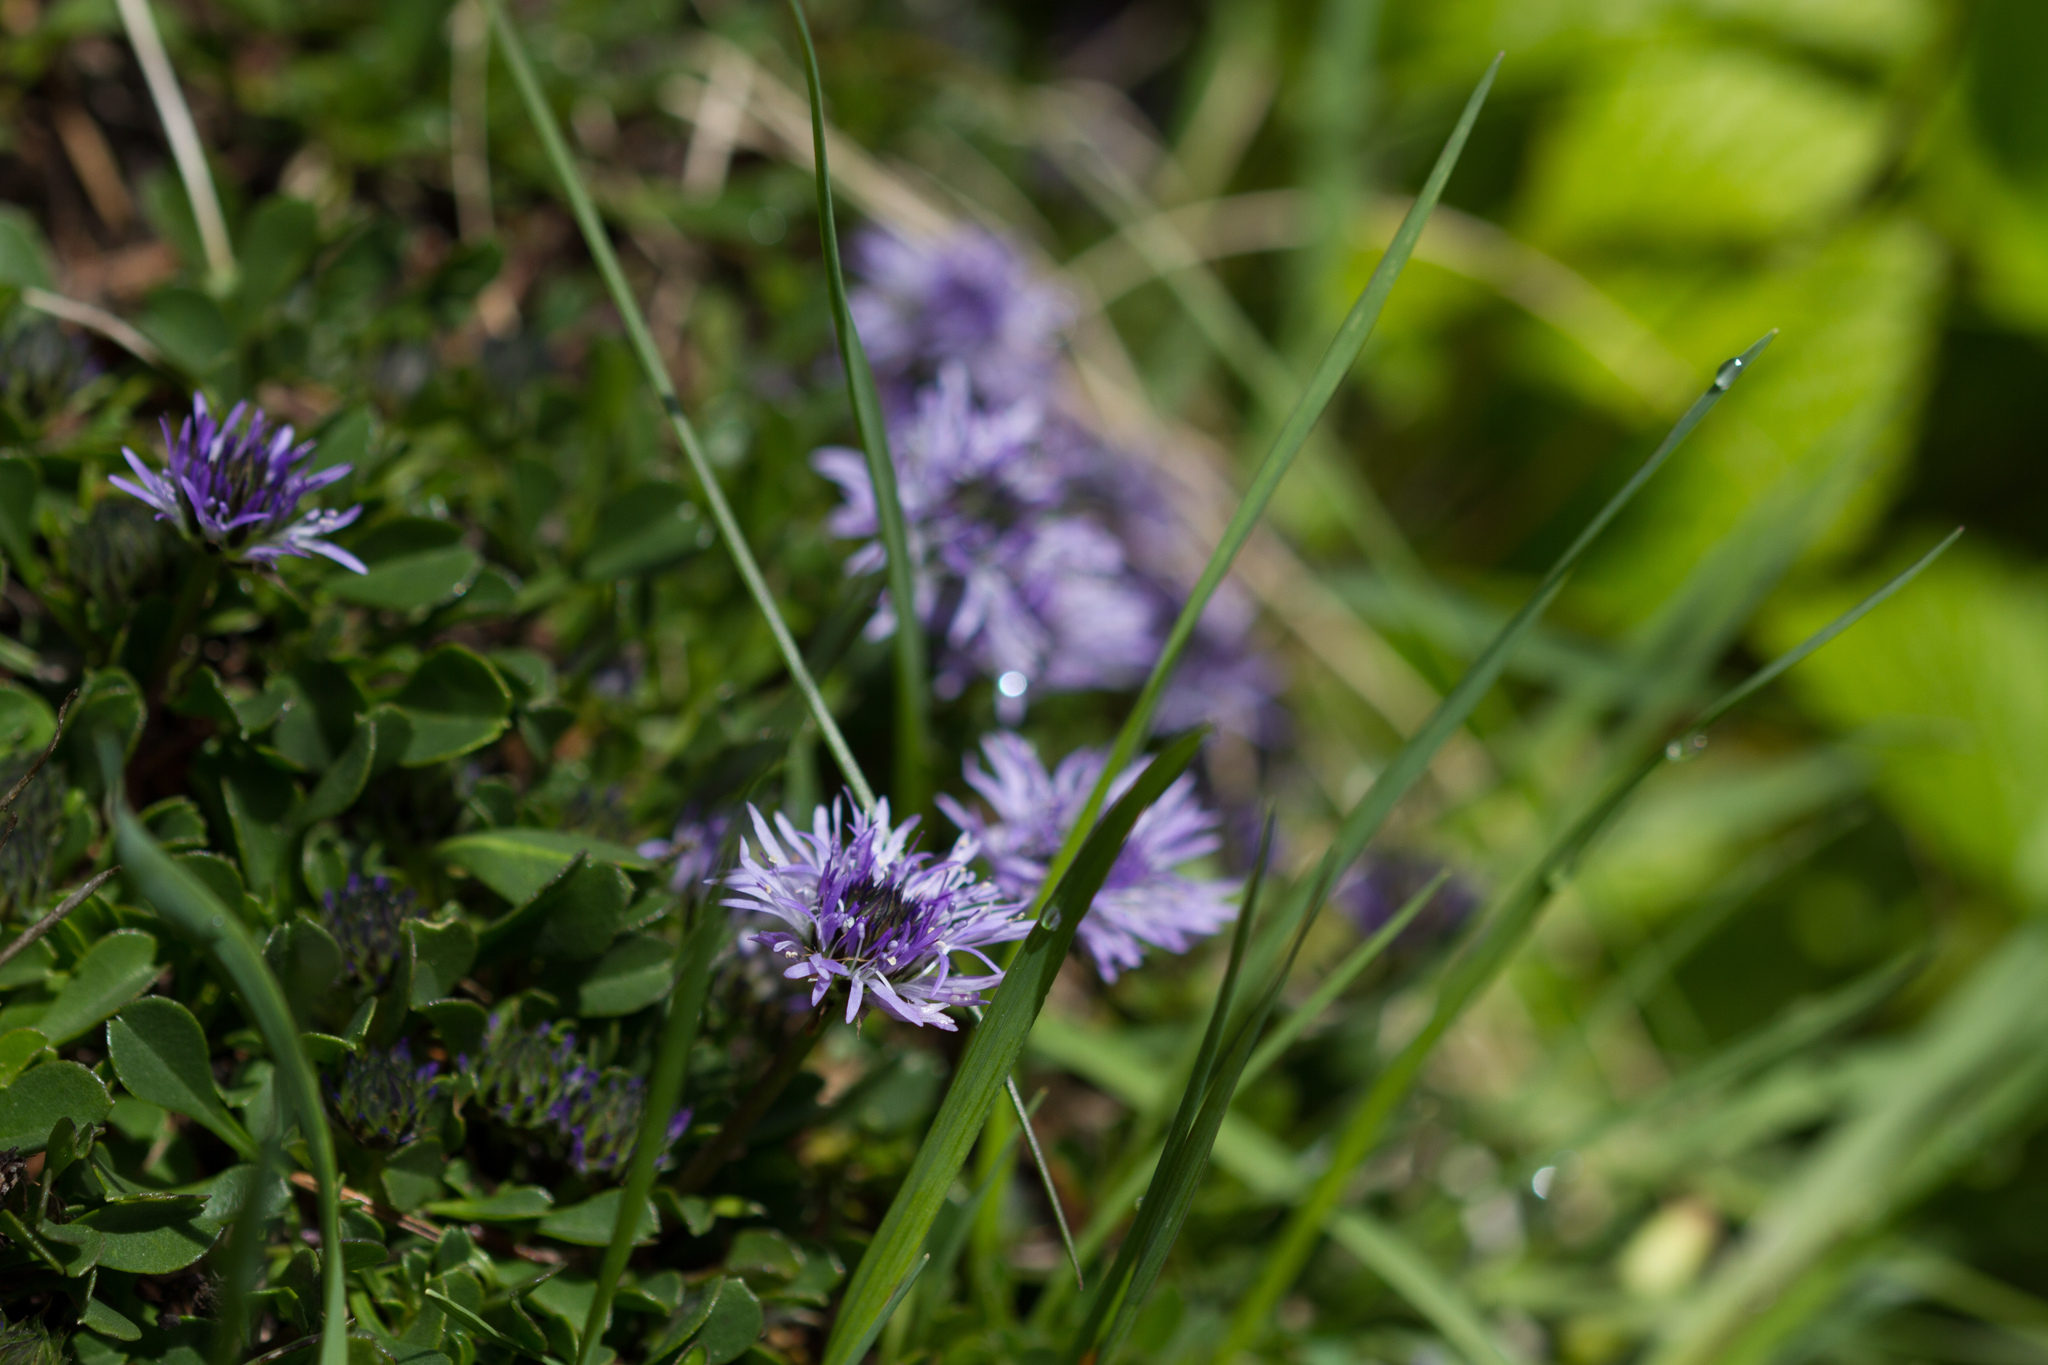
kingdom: Plantae
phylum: Tracheophyta
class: Magnoliopsida
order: Lamiales
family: Plantaginaceae
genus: Globularia
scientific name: Globularia cordifolia
